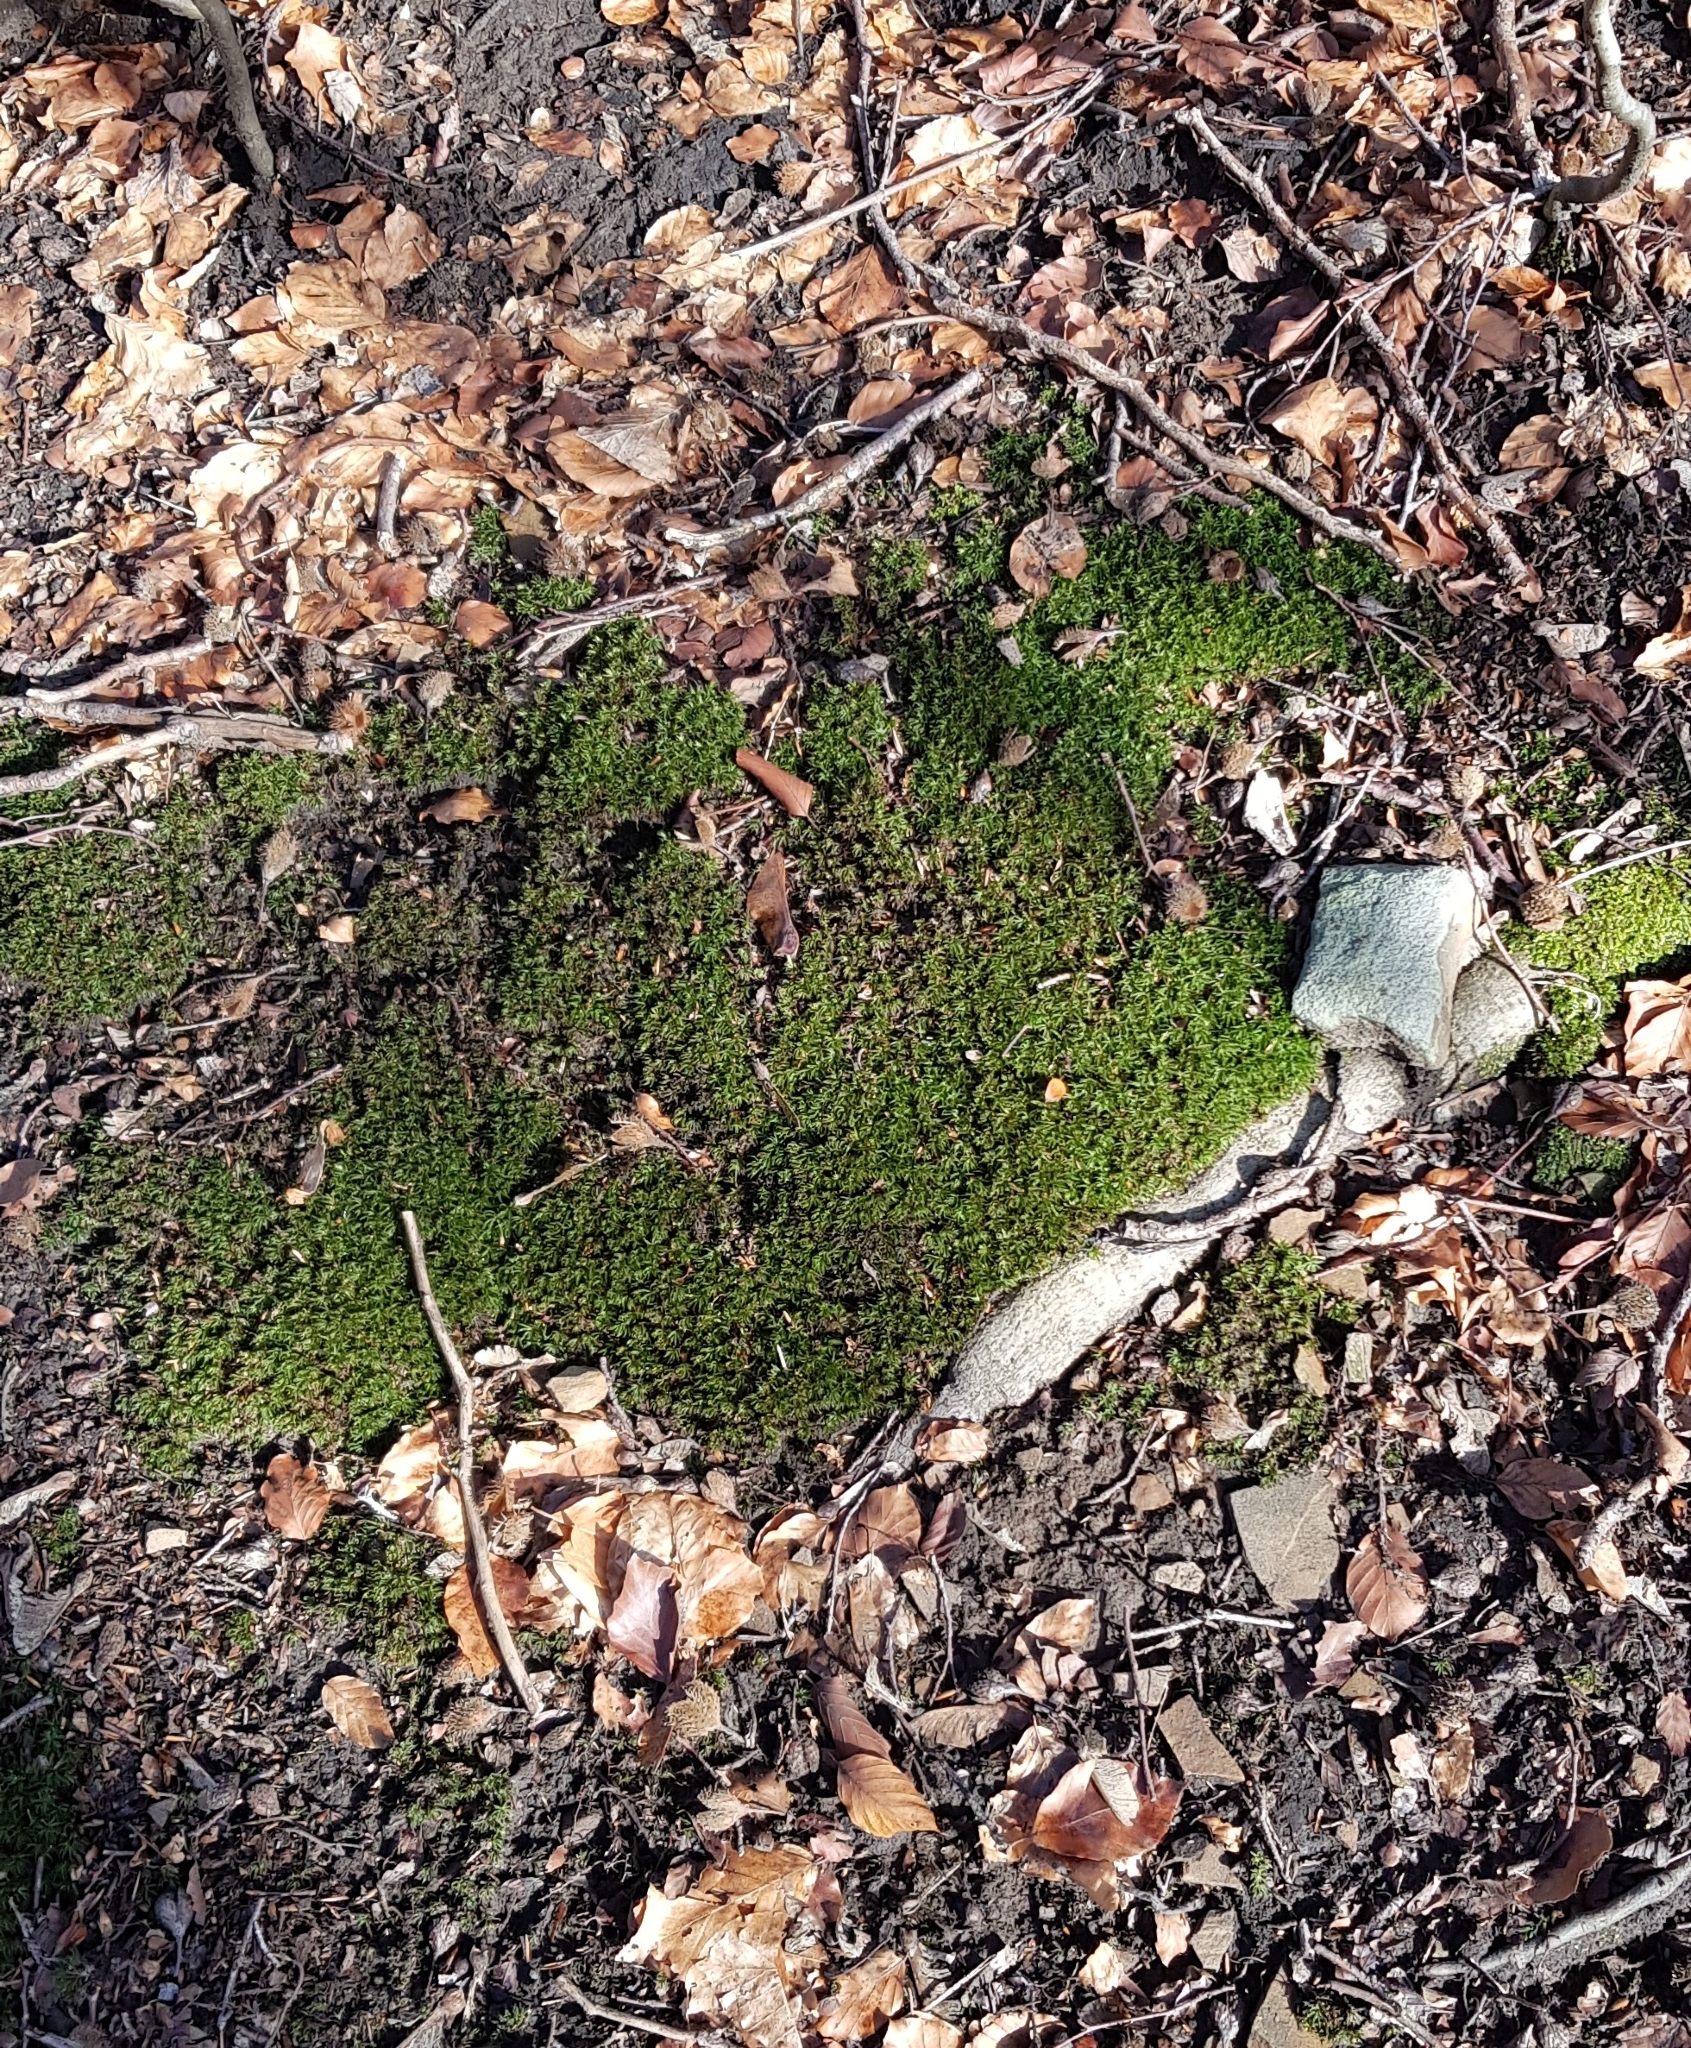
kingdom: Plantae
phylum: Bryophyta
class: Polytrichopsida
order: Polytrichales
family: Polytrichaceae
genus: Atrichum
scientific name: Atrichum undulatum
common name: Common smoothcap
